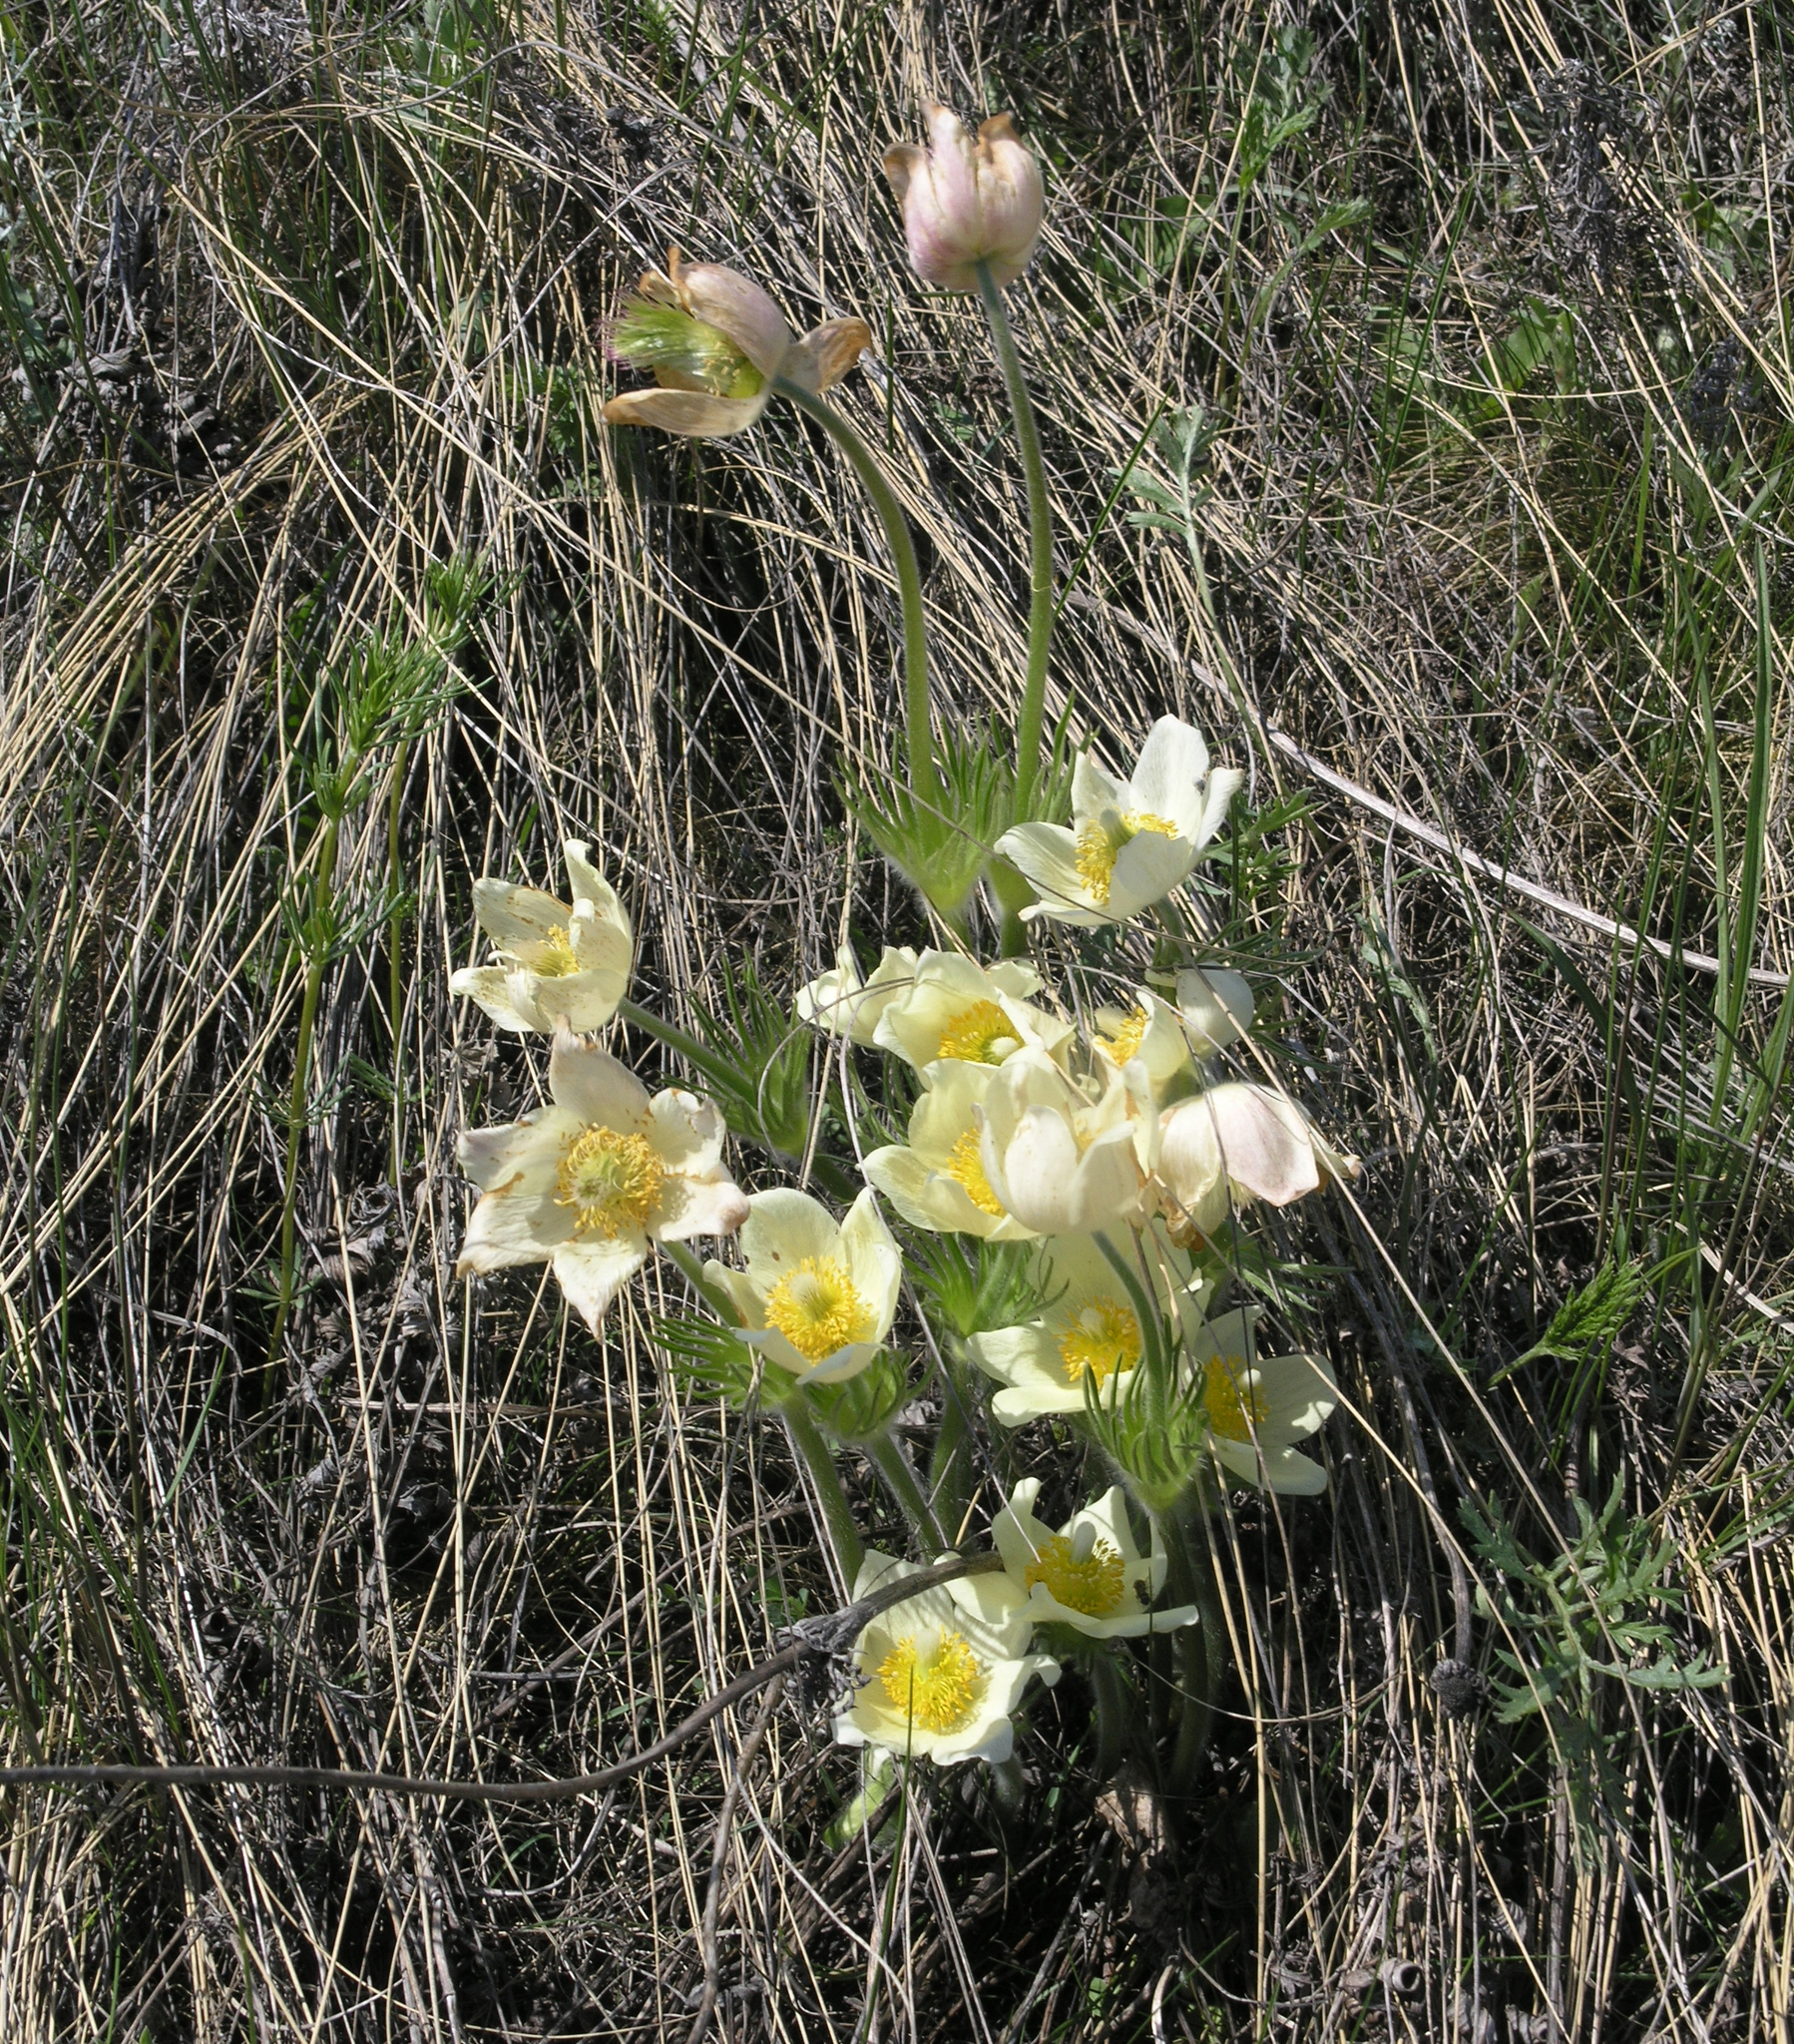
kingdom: Plantae
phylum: Tracheophyta
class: Magnoliopsida
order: Ranunculales
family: Ranunculaceae
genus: Pulsatilla
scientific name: Pulsatilla patens
